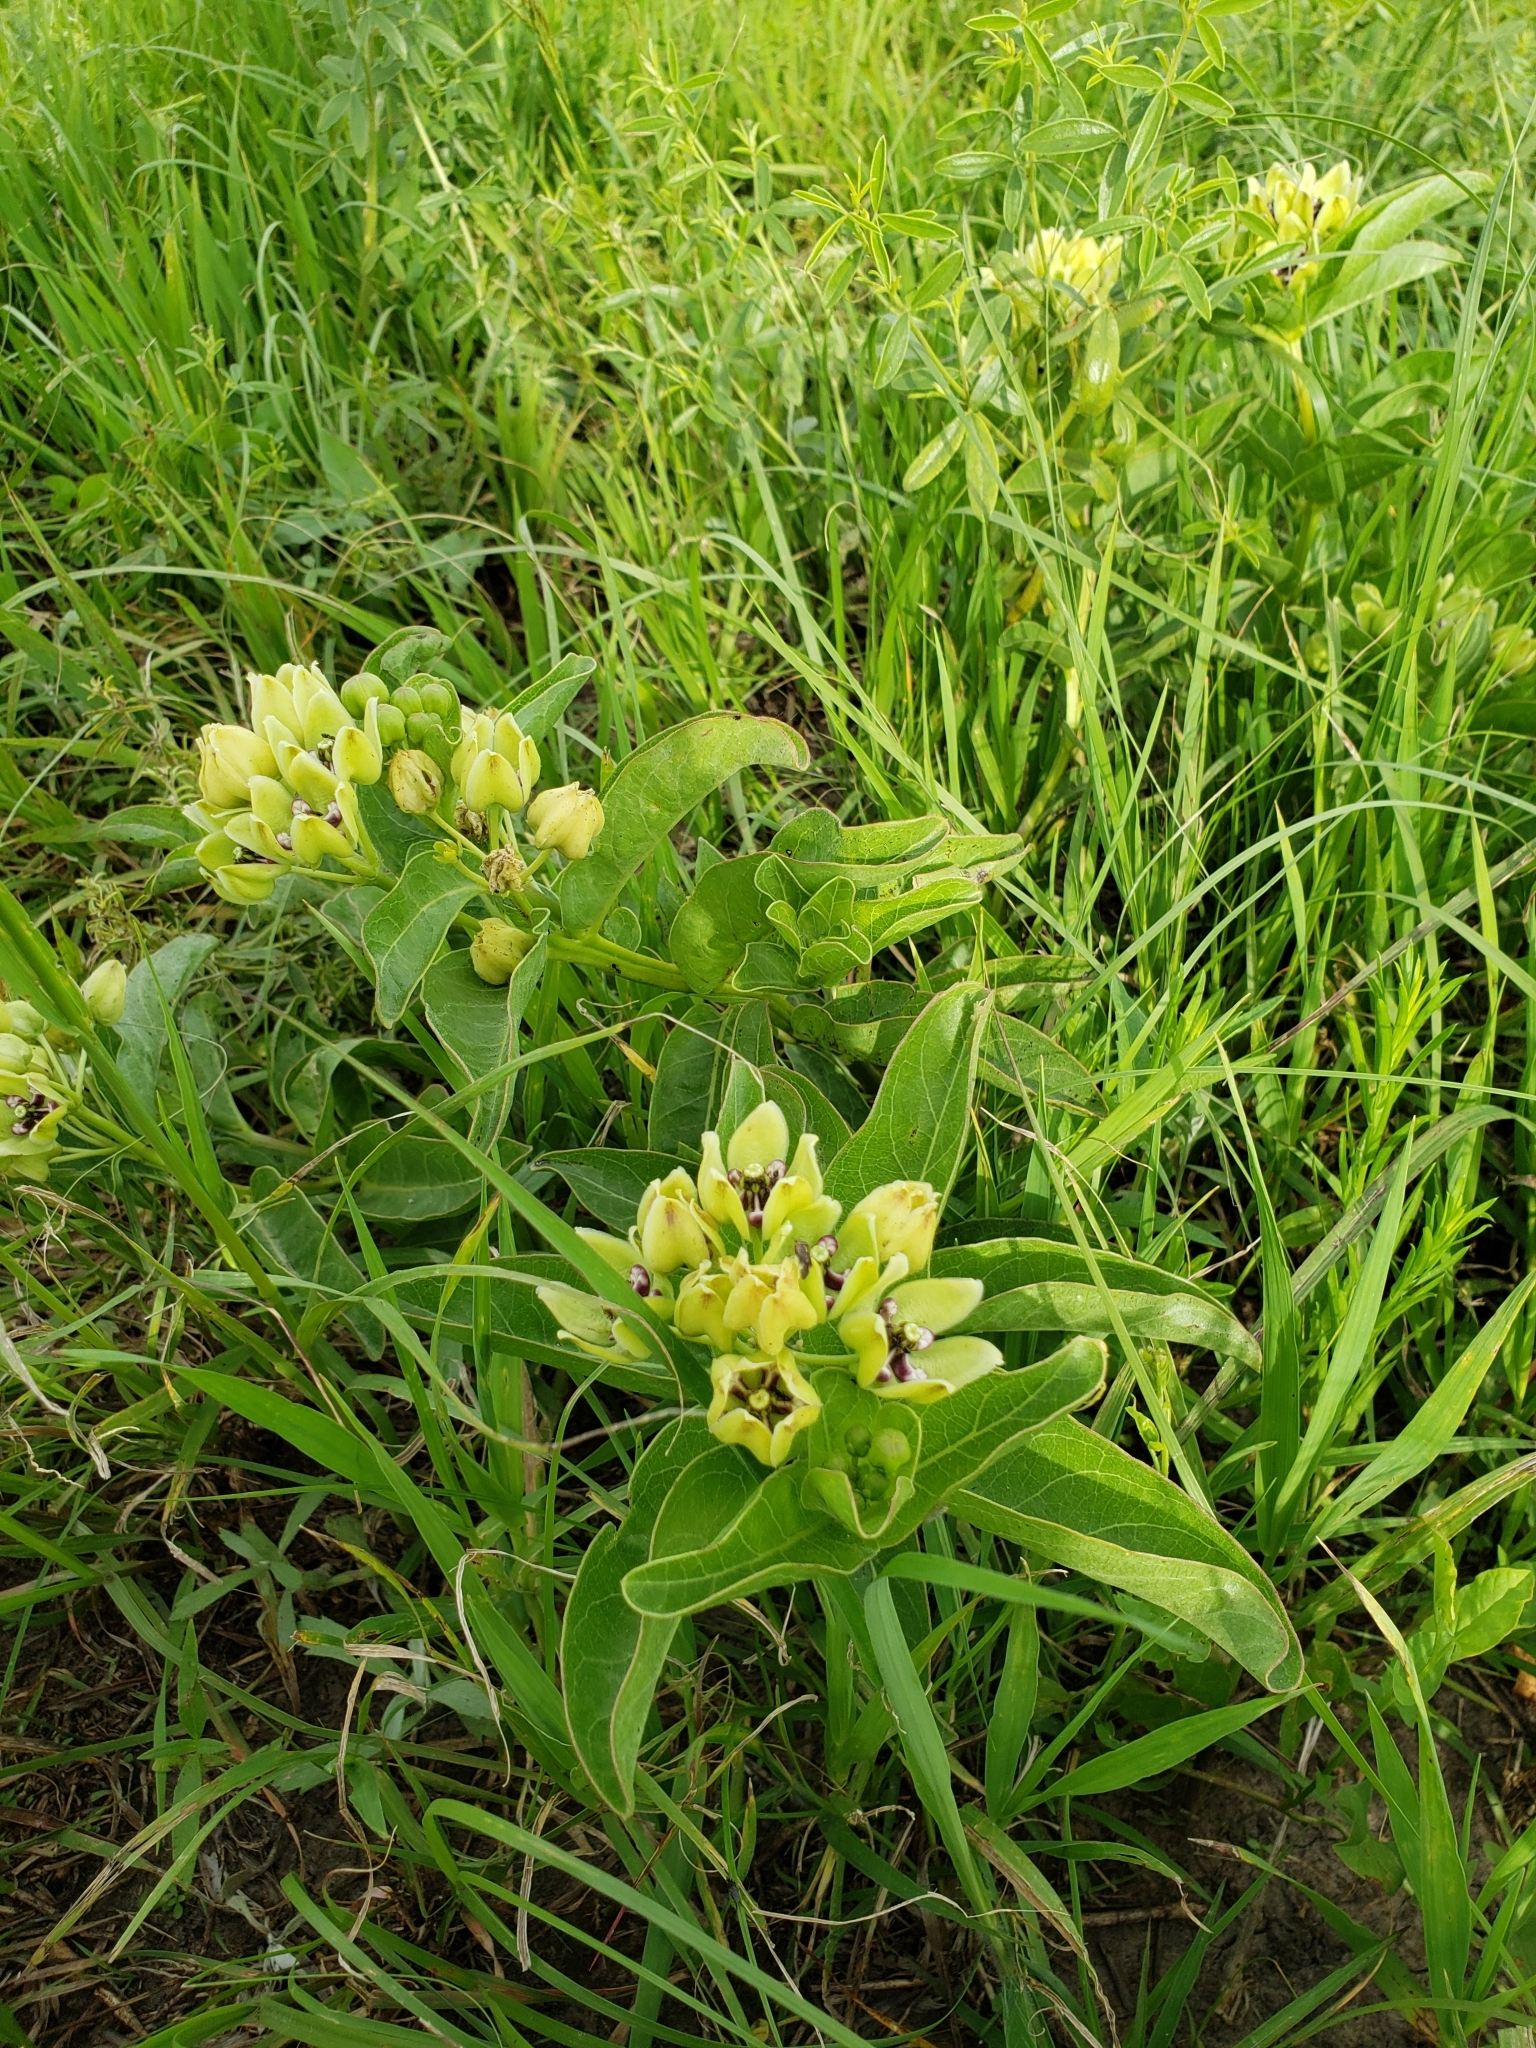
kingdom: Plantae
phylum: Tracheophyta
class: Magnoliopsida
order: Gentianales
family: Apocynaceae
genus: Asclepias
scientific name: Asclepias viridis
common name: Antelope-horns
